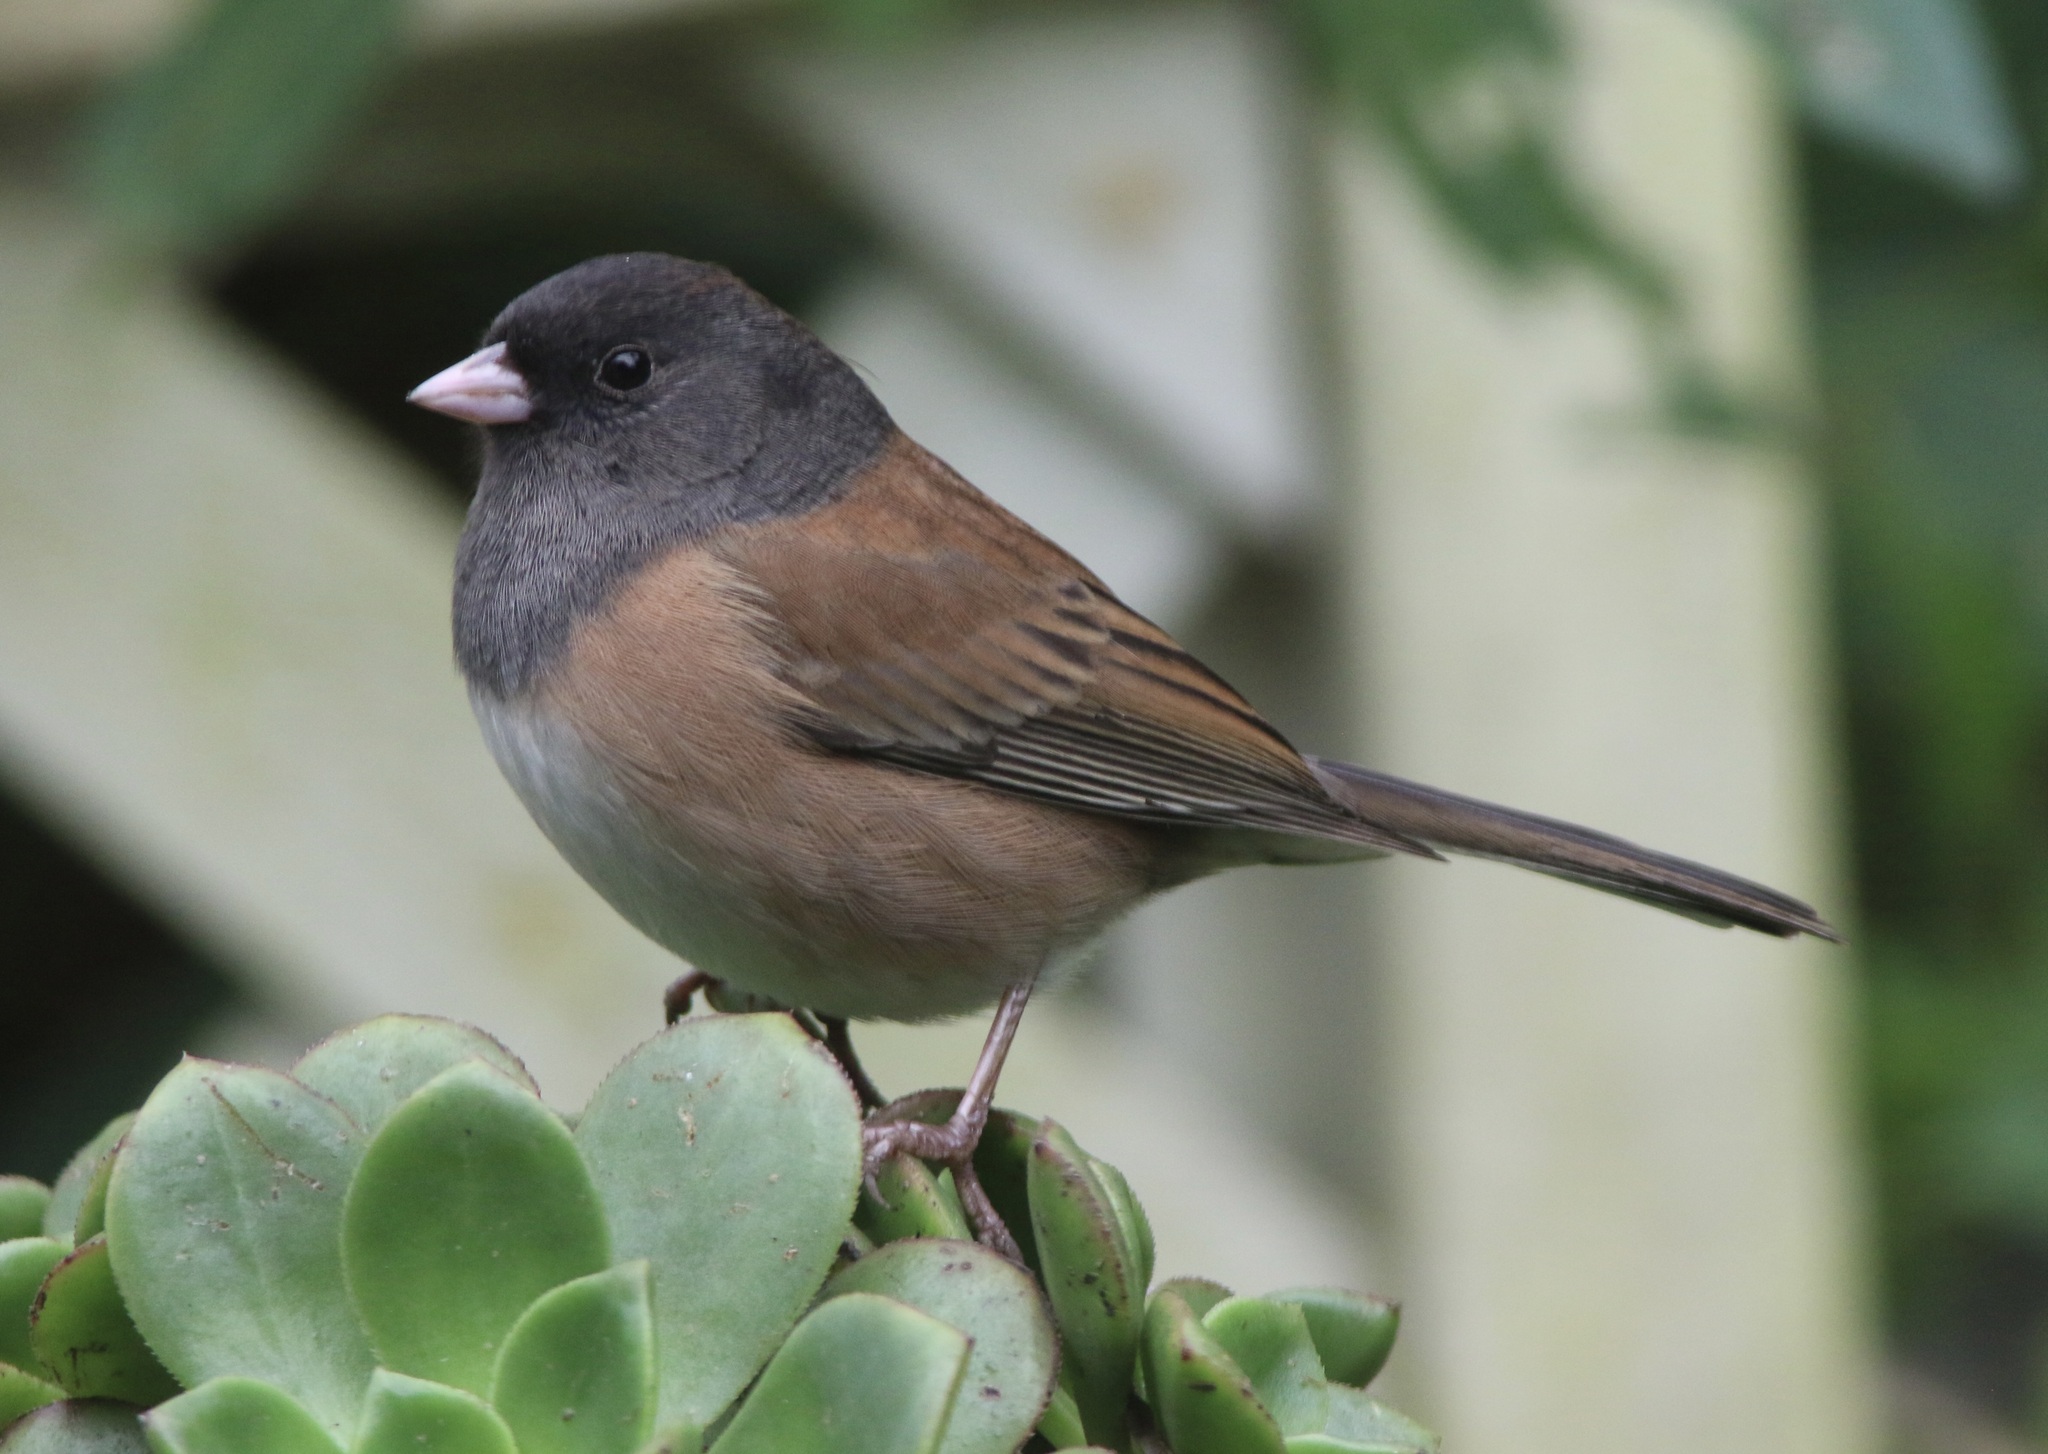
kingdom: Animalia
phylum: Chordata
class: Aves
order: Passeriformes
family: Passerellidae
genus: Junco
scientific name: Junco hyemalis
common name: Dark-eyed junco
